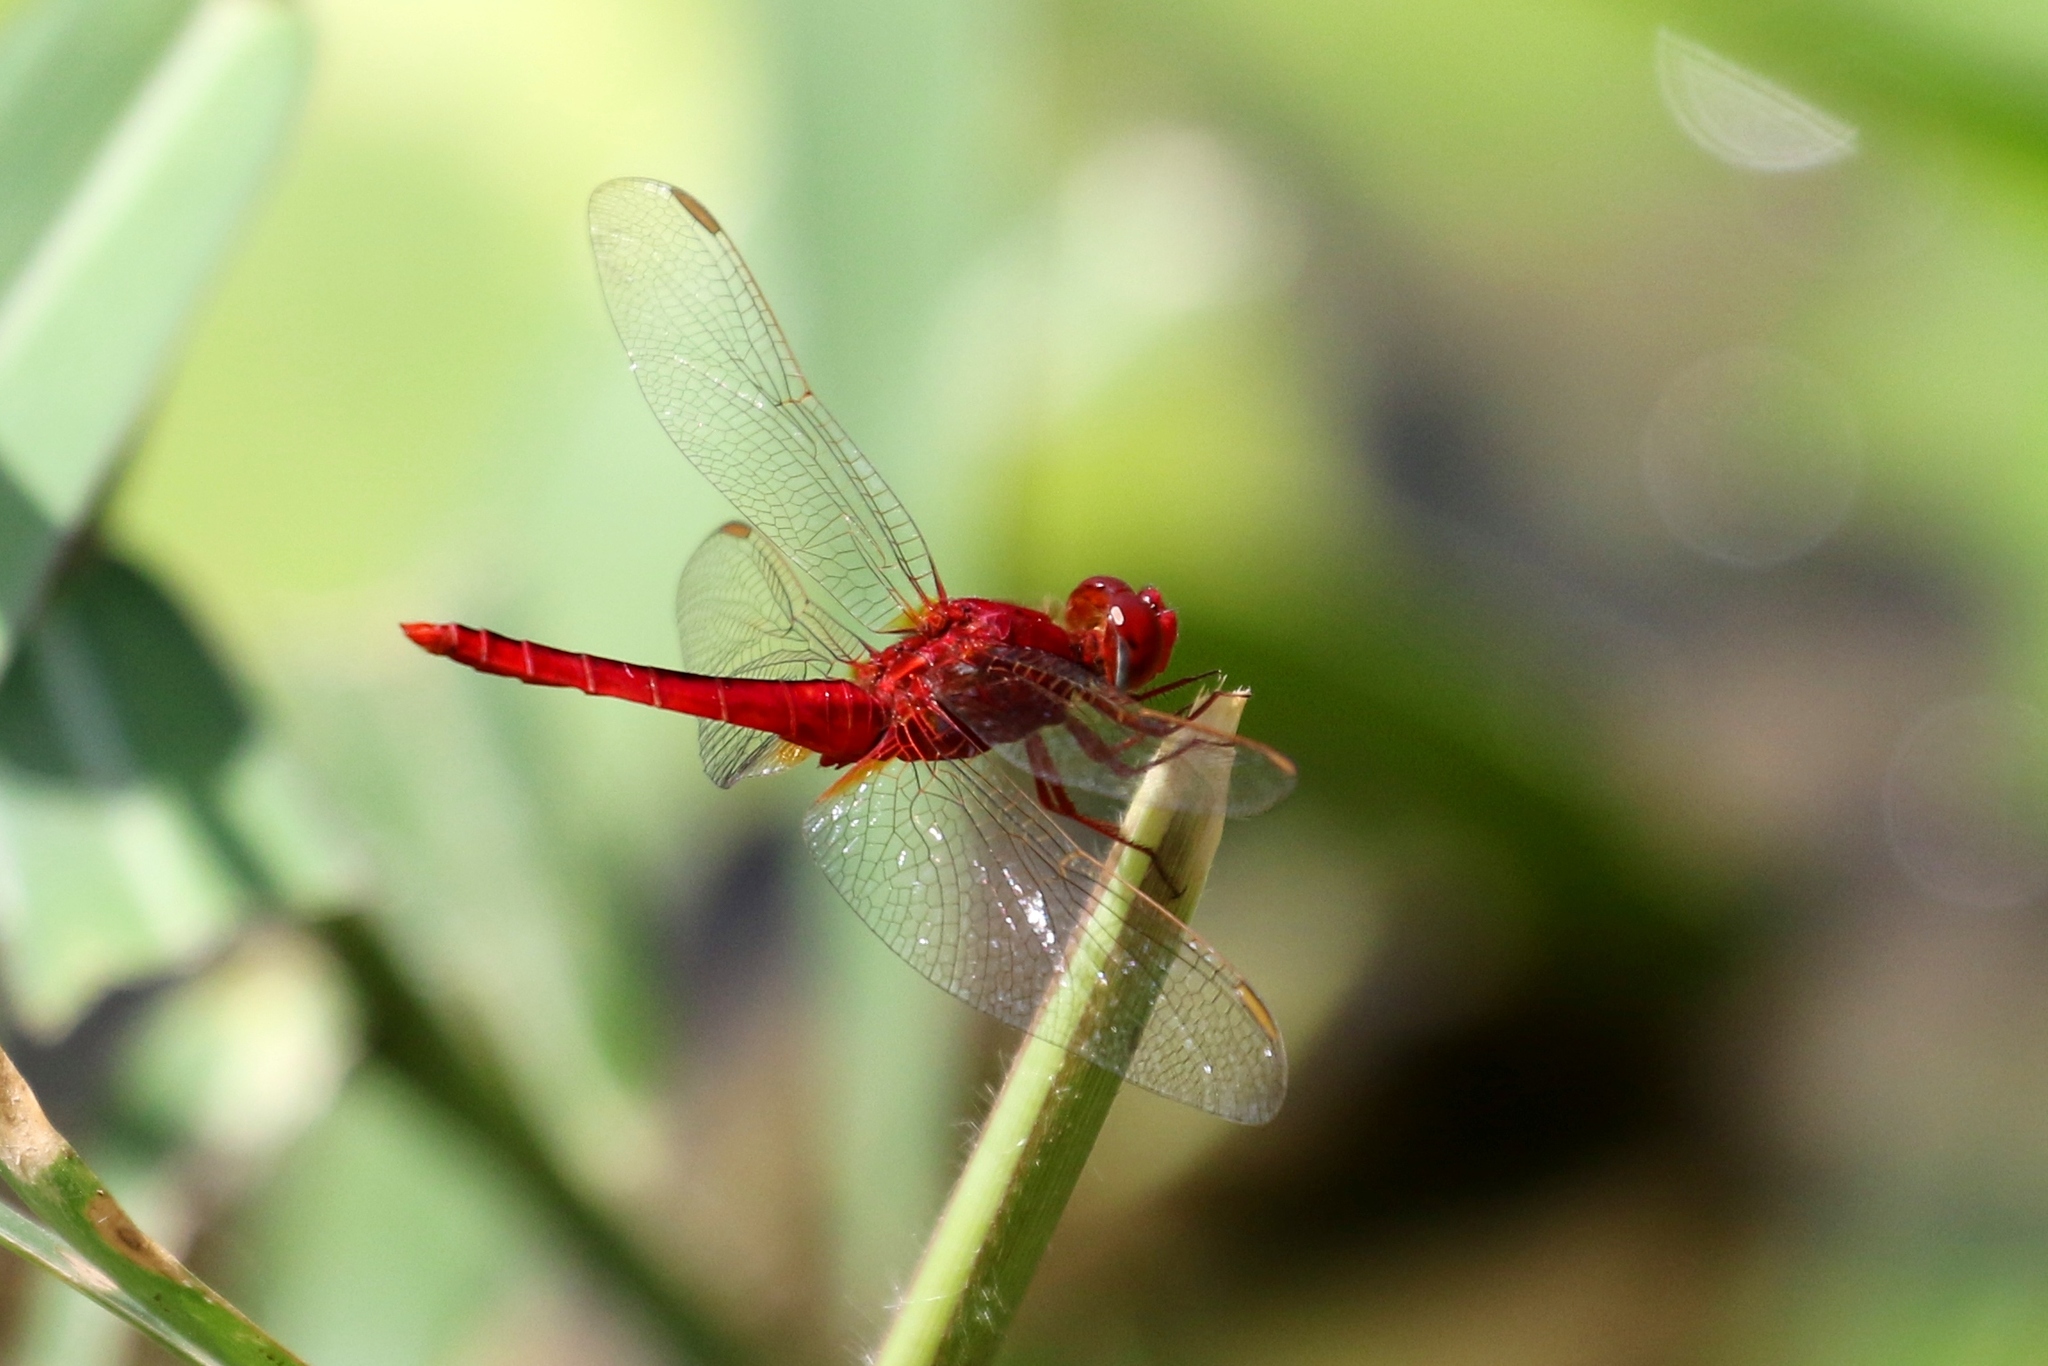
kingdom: Animalia
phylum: Arthropoda
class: Insecta
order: Odonata
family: Libellulidae
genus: Crocothemis
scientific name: Crocothemis servilia
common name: Scarlet skimmer
